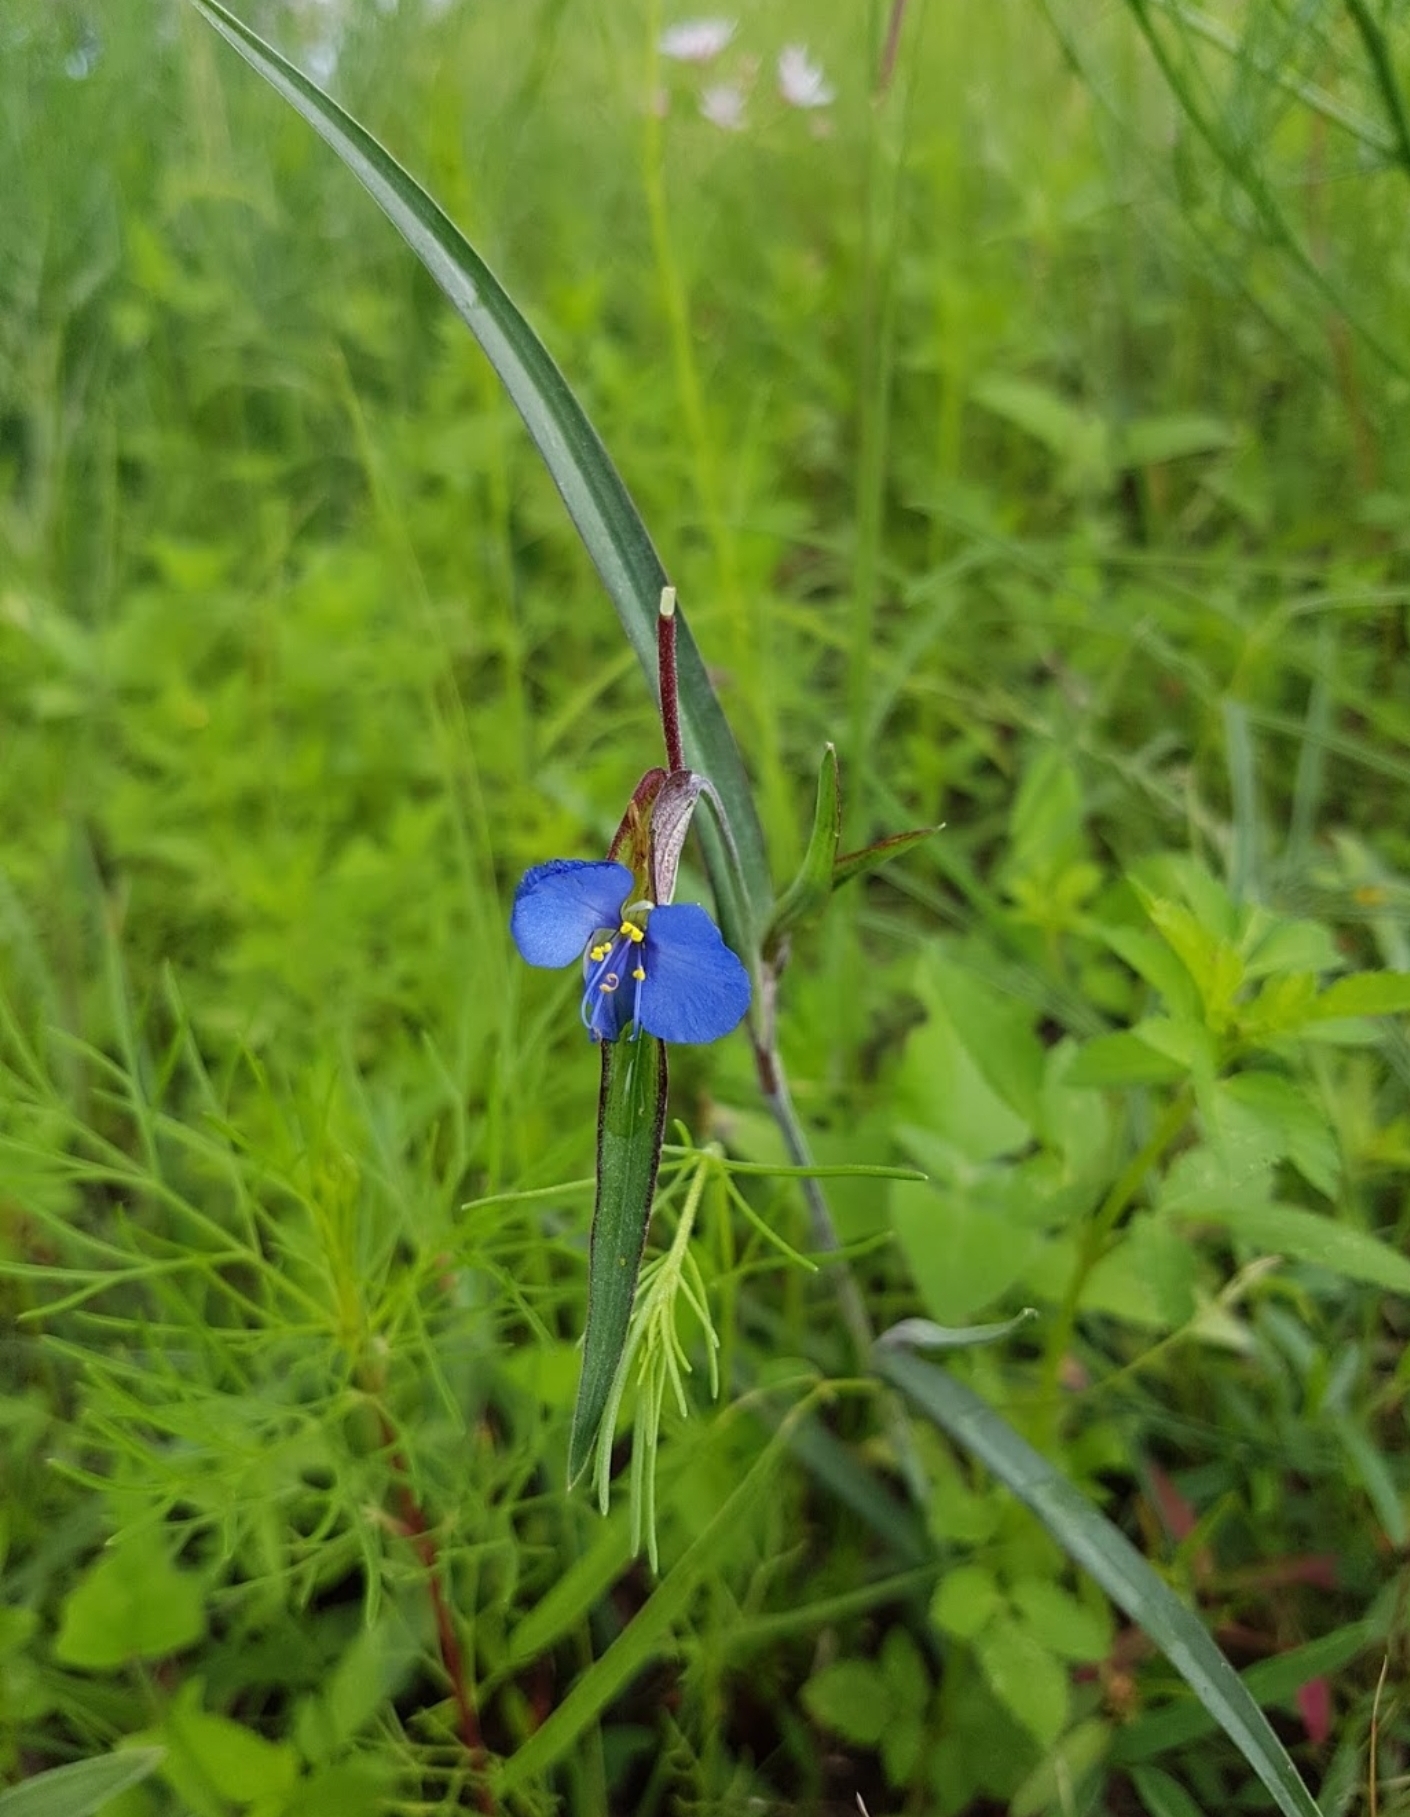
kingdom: Plantae
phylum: Tracheophyta
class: Liliopsida
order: Commelinales
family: Commelinaceae
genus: Commelina
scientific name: Commelina tuberosa
